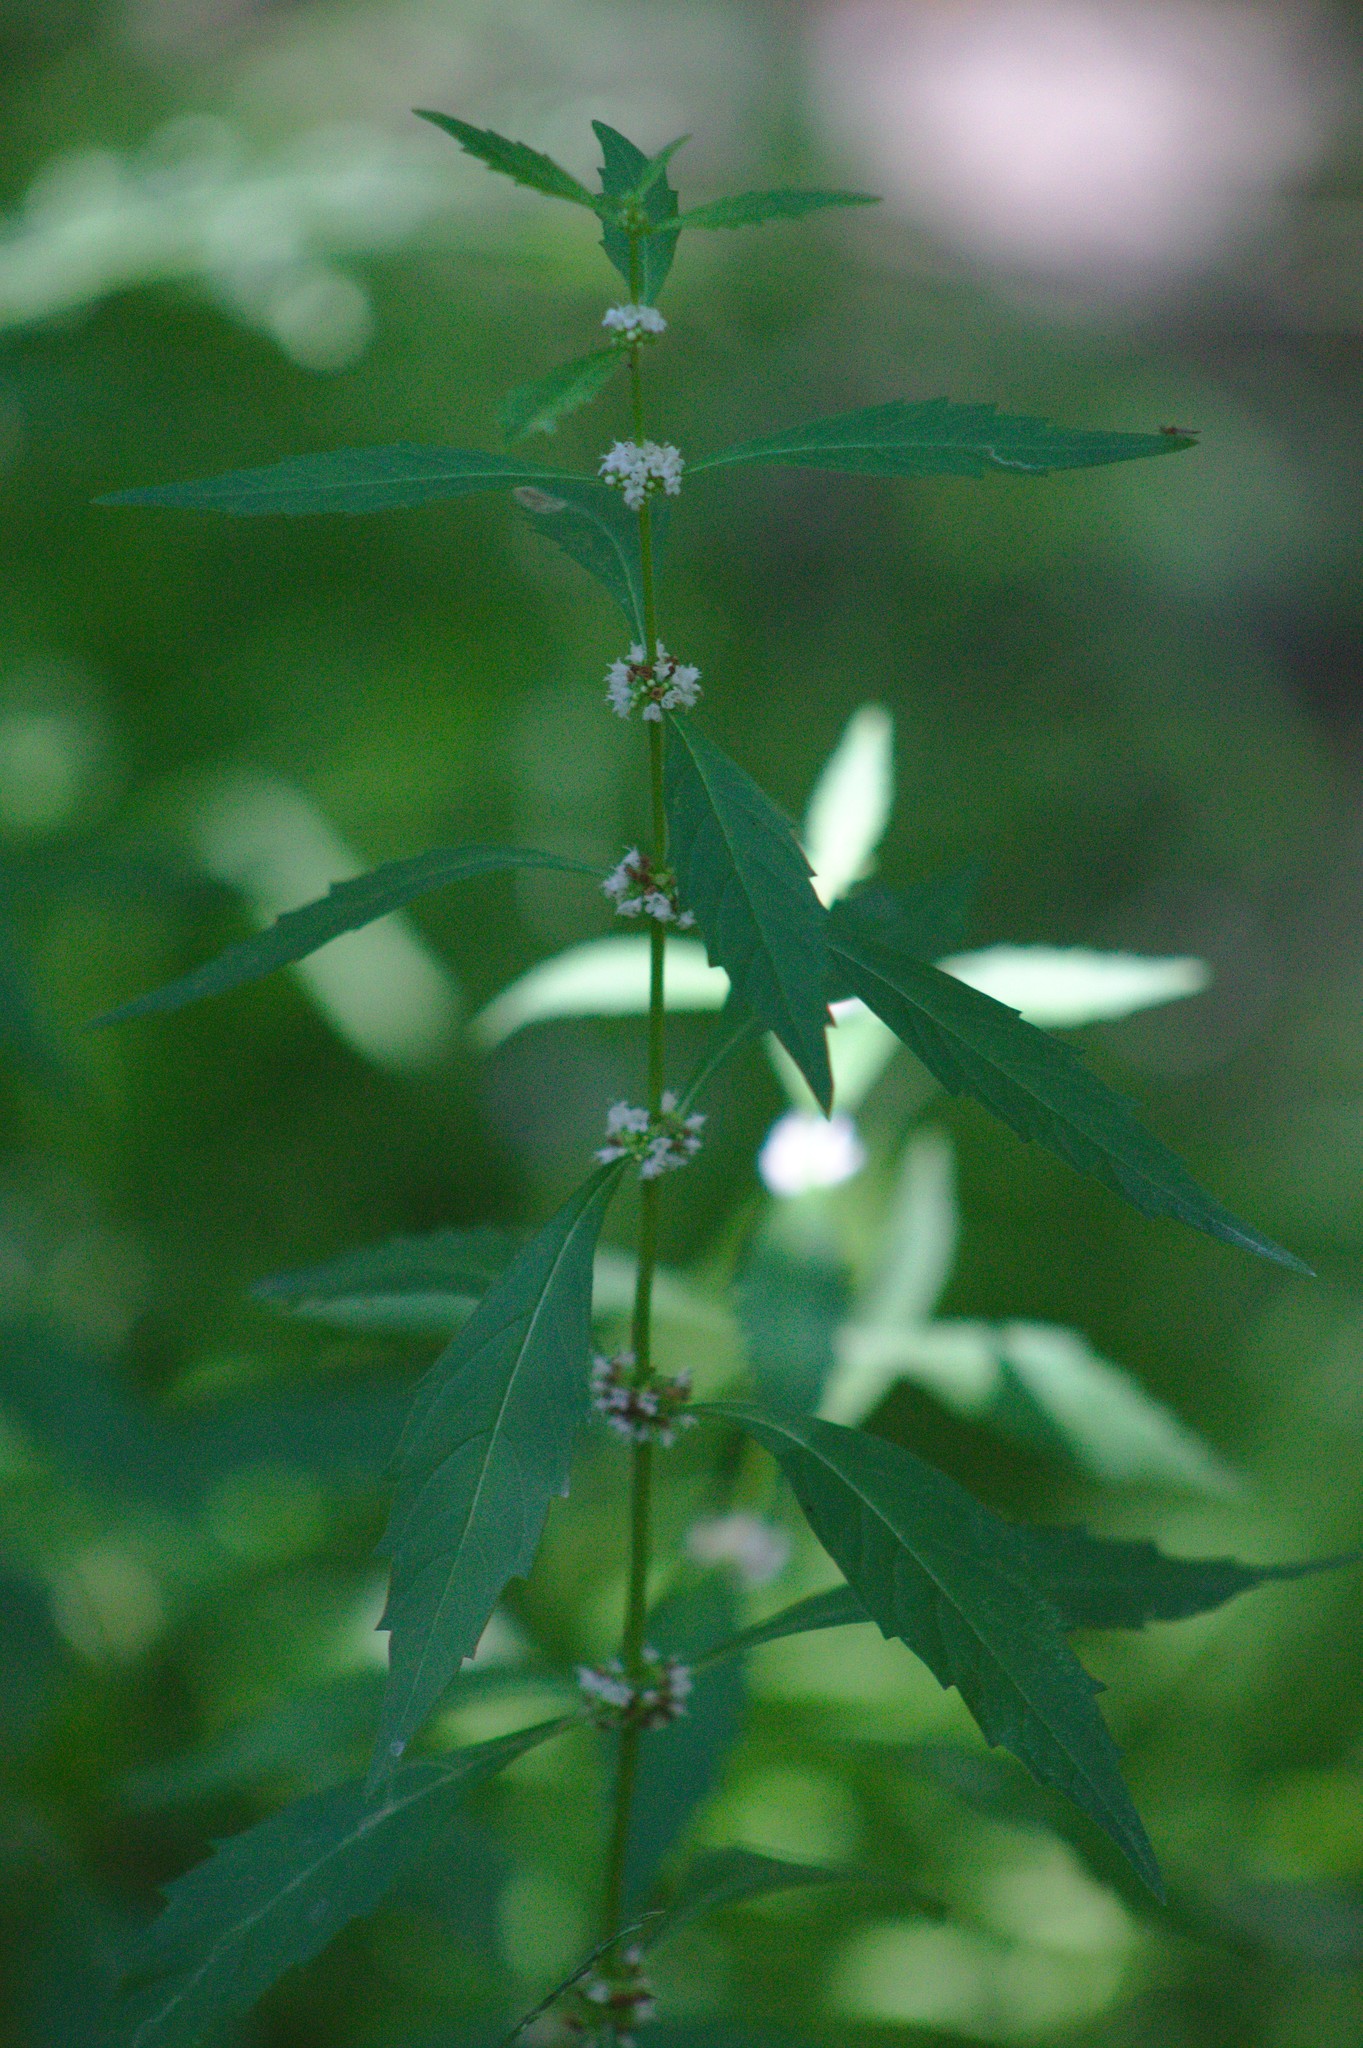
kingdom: Plantae
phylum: Tracheophyta
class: Magnoliopsida
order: Lamiales
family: Lamiaceae
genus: Lycopus
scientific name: Lycopus uniflorus
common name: Northern bugleweed
